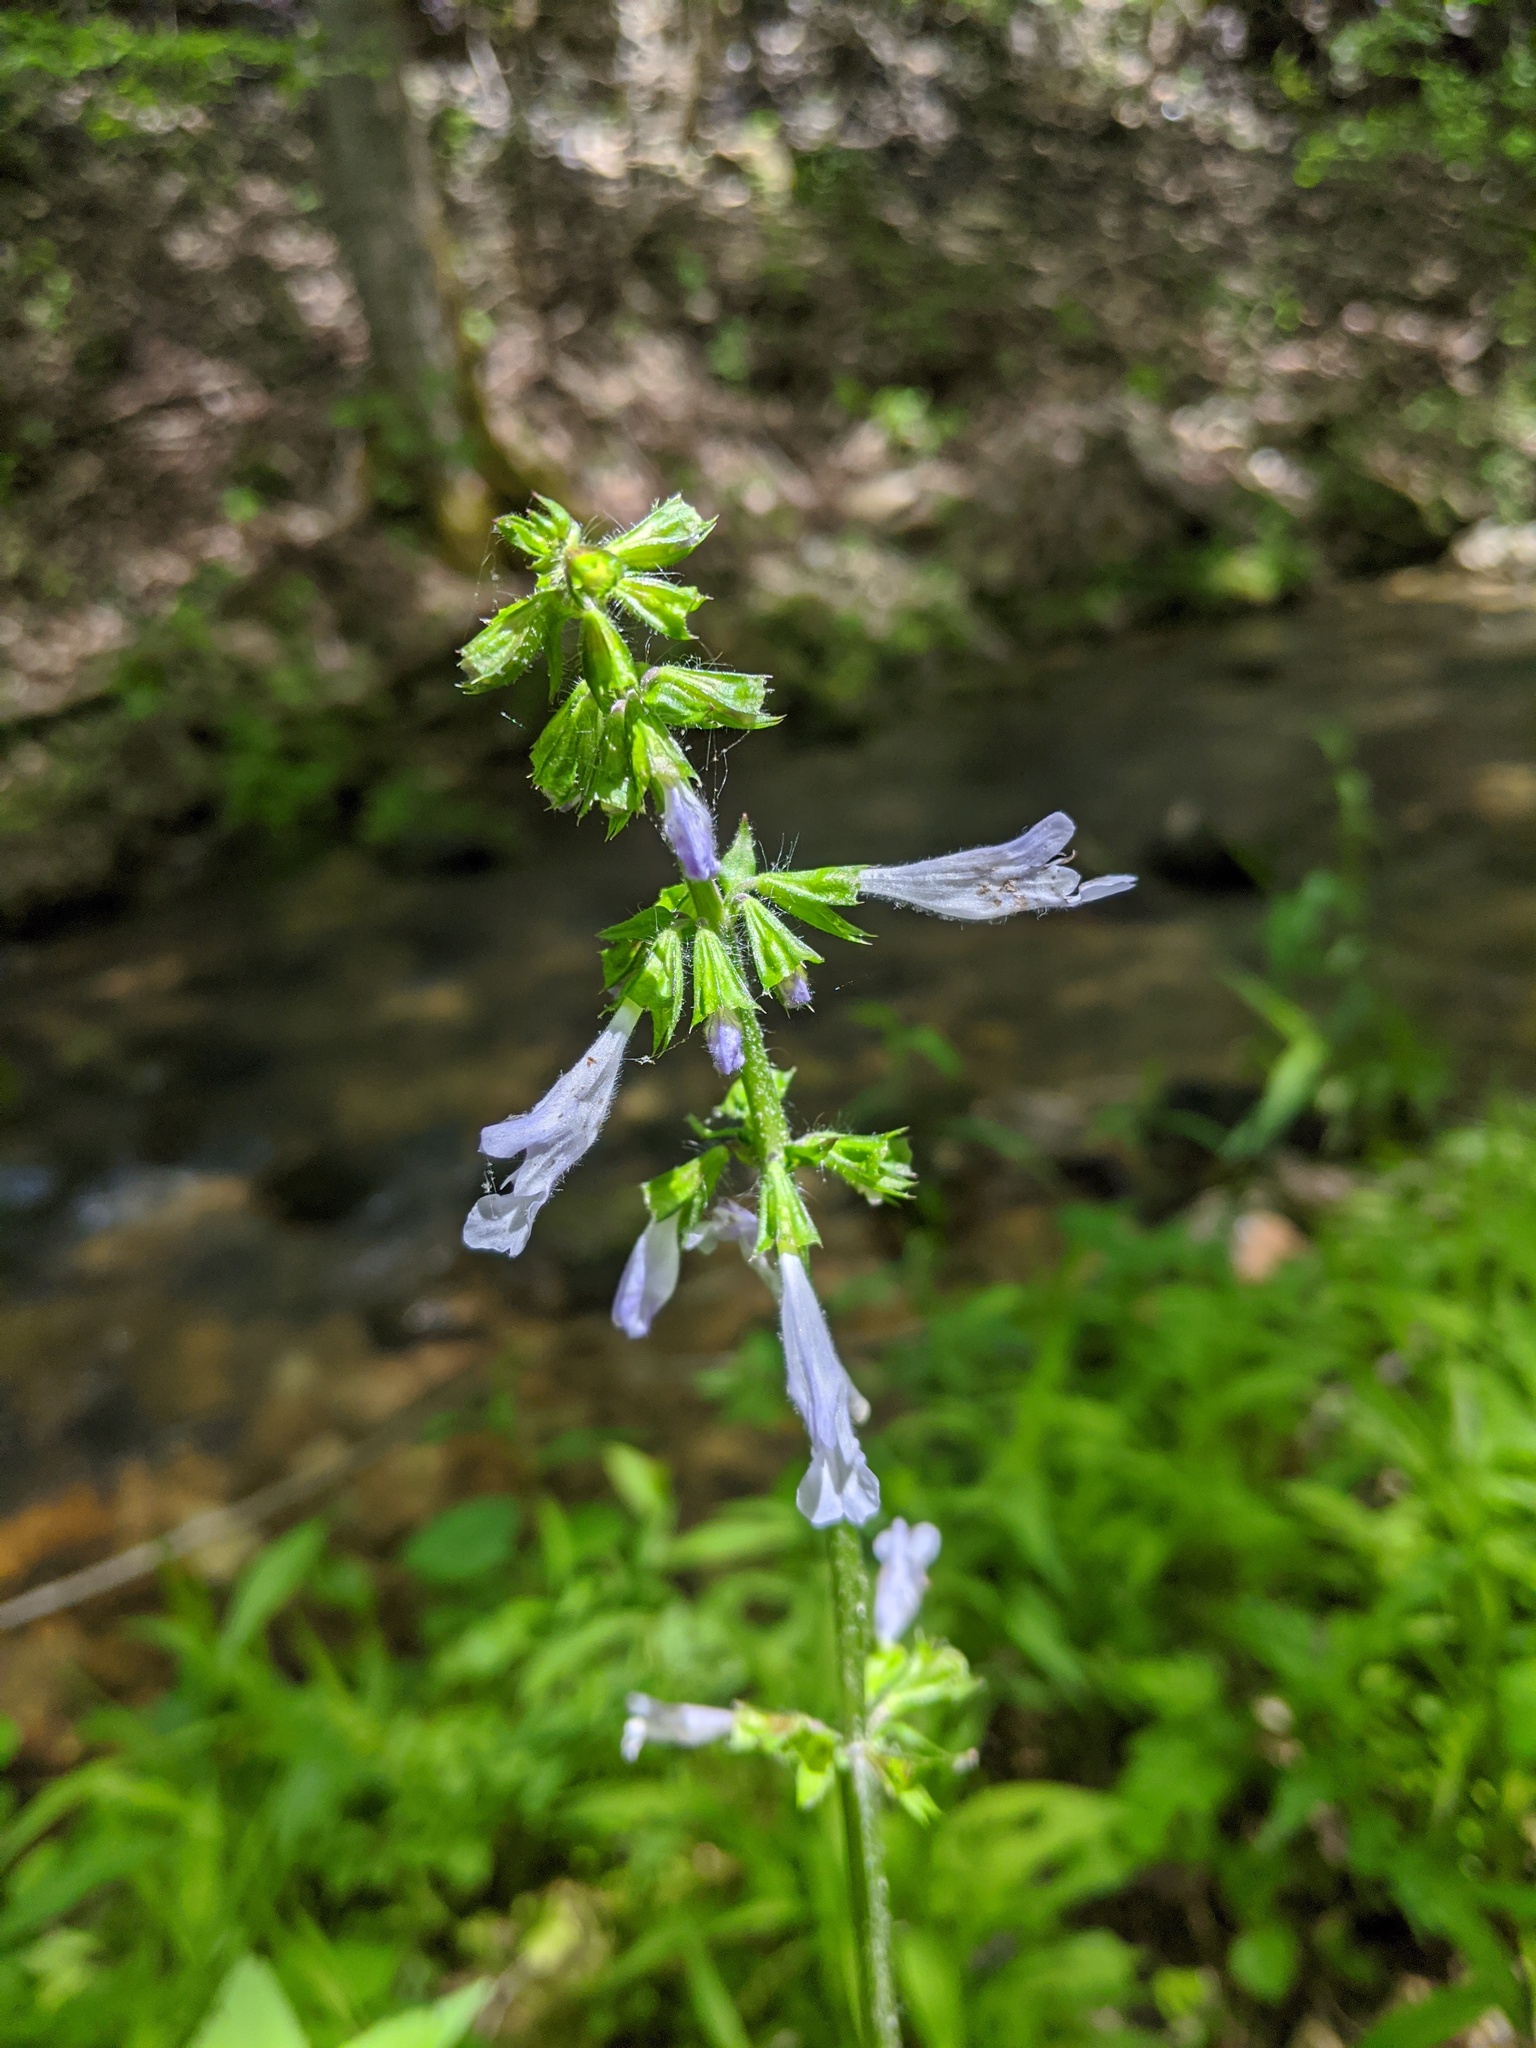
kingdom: Plantae
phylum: Tracheophyta
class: Magnoliopsida
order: Lamiales
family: Lamiaceae
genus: Salvia
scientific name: Salvia lyrata
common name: Cancerweed
